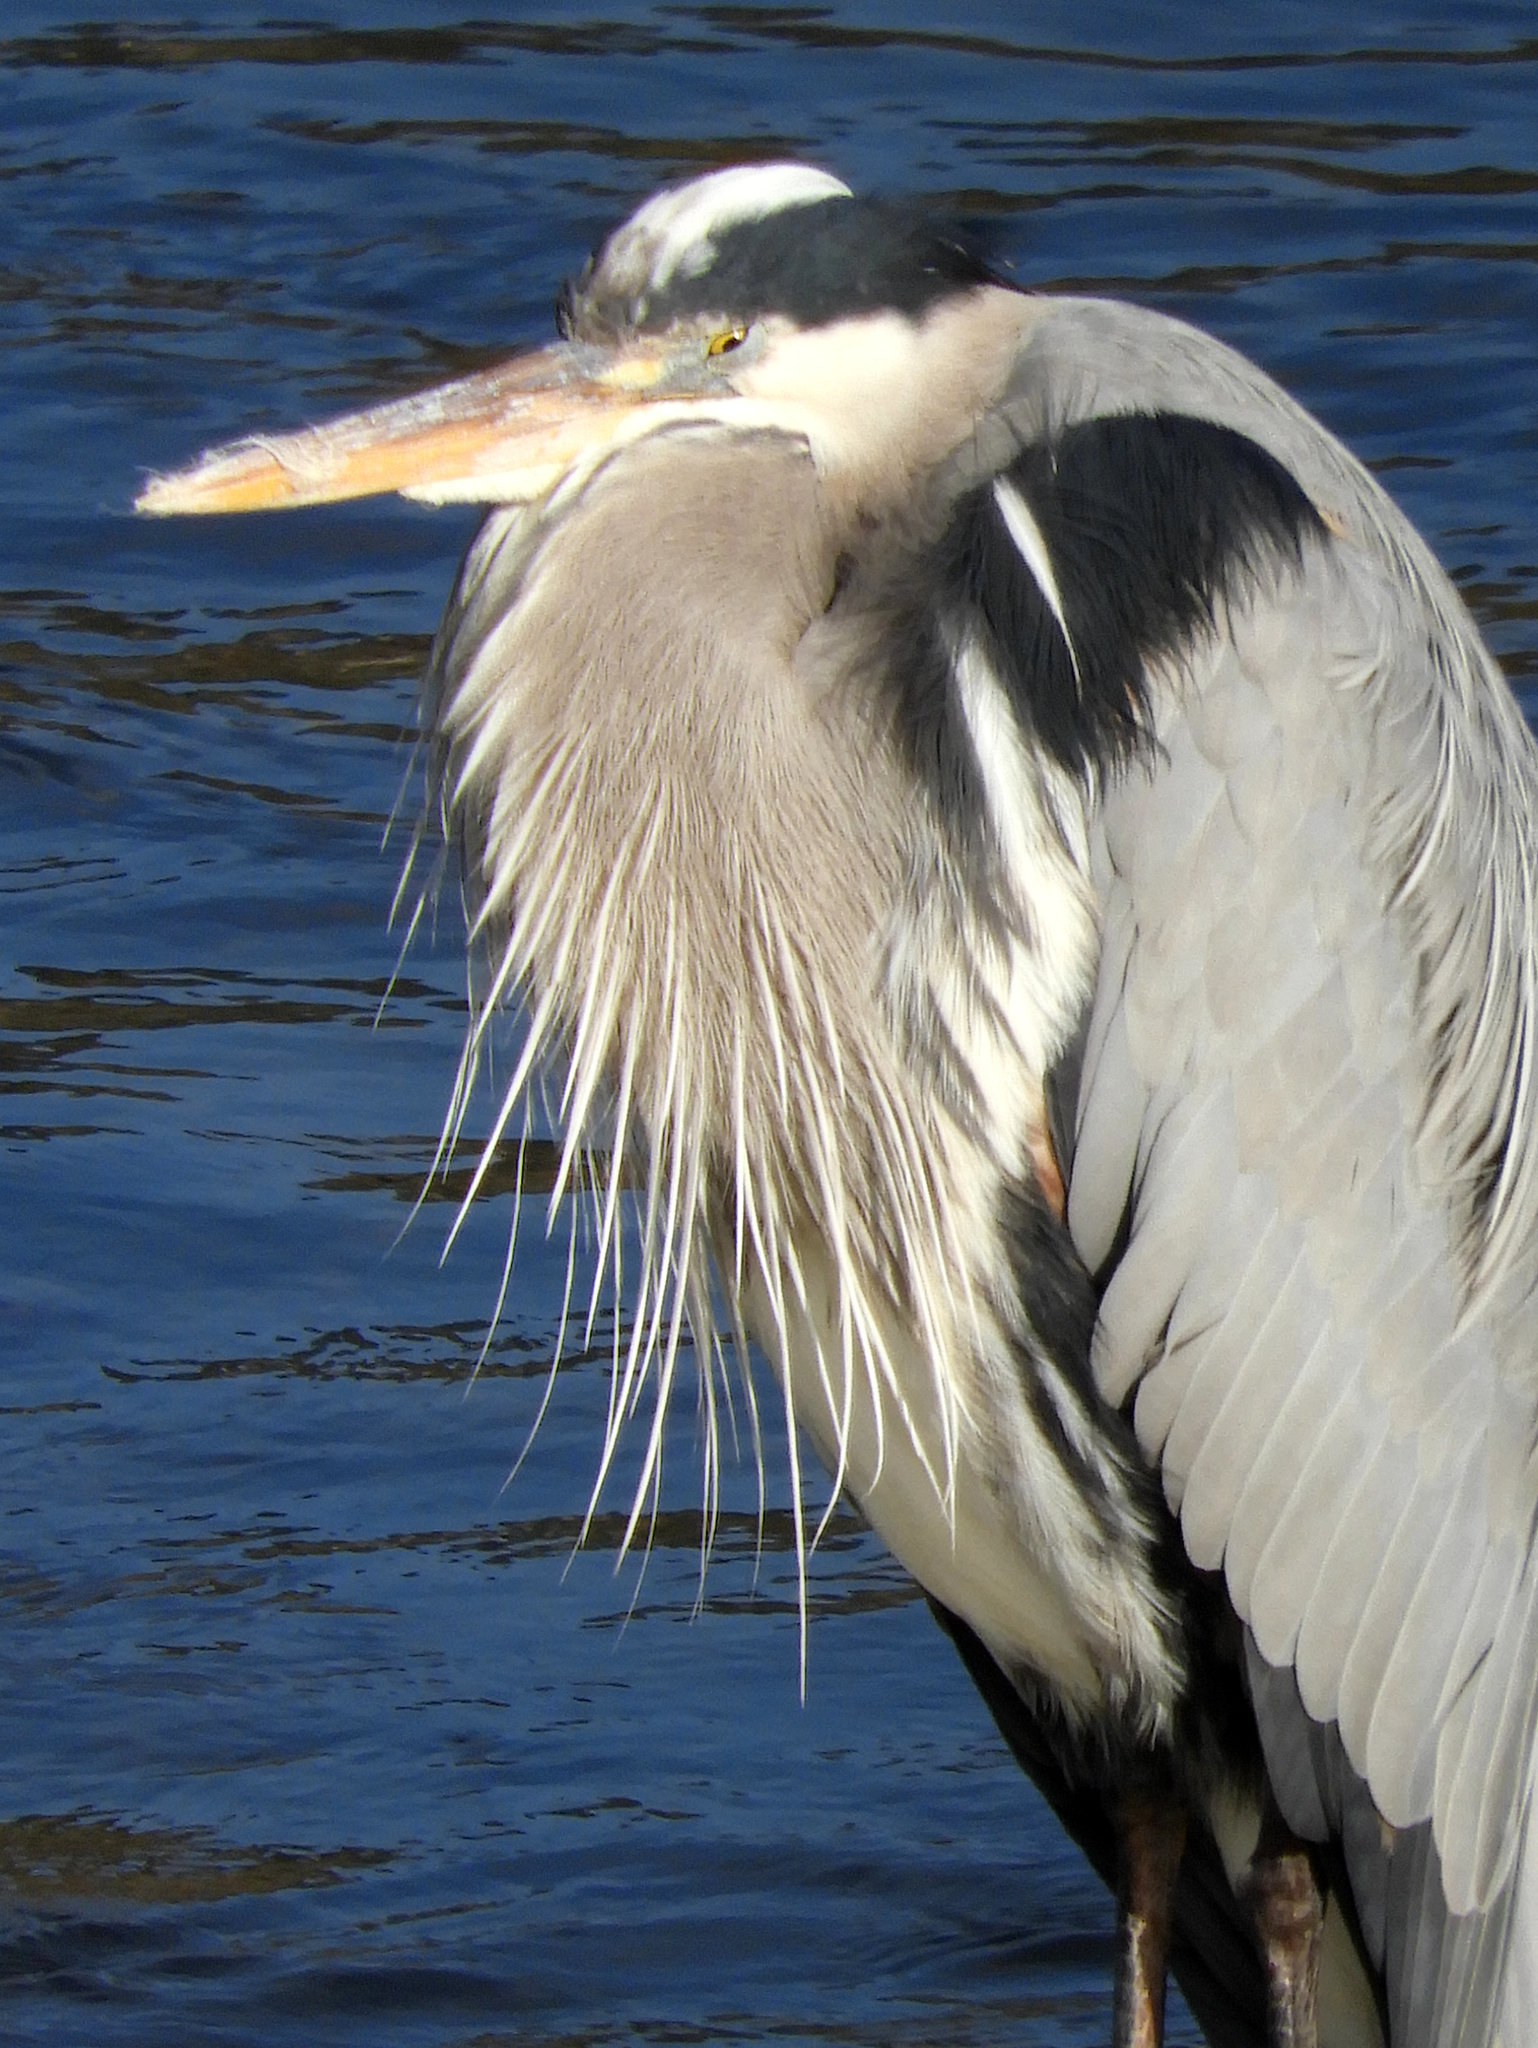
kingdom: Animalia
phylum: Chordata
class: Aves
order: Pelecaniformes
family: Ardeidae
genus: Ardea
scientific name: Ardea herodias
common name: Great blue heron
